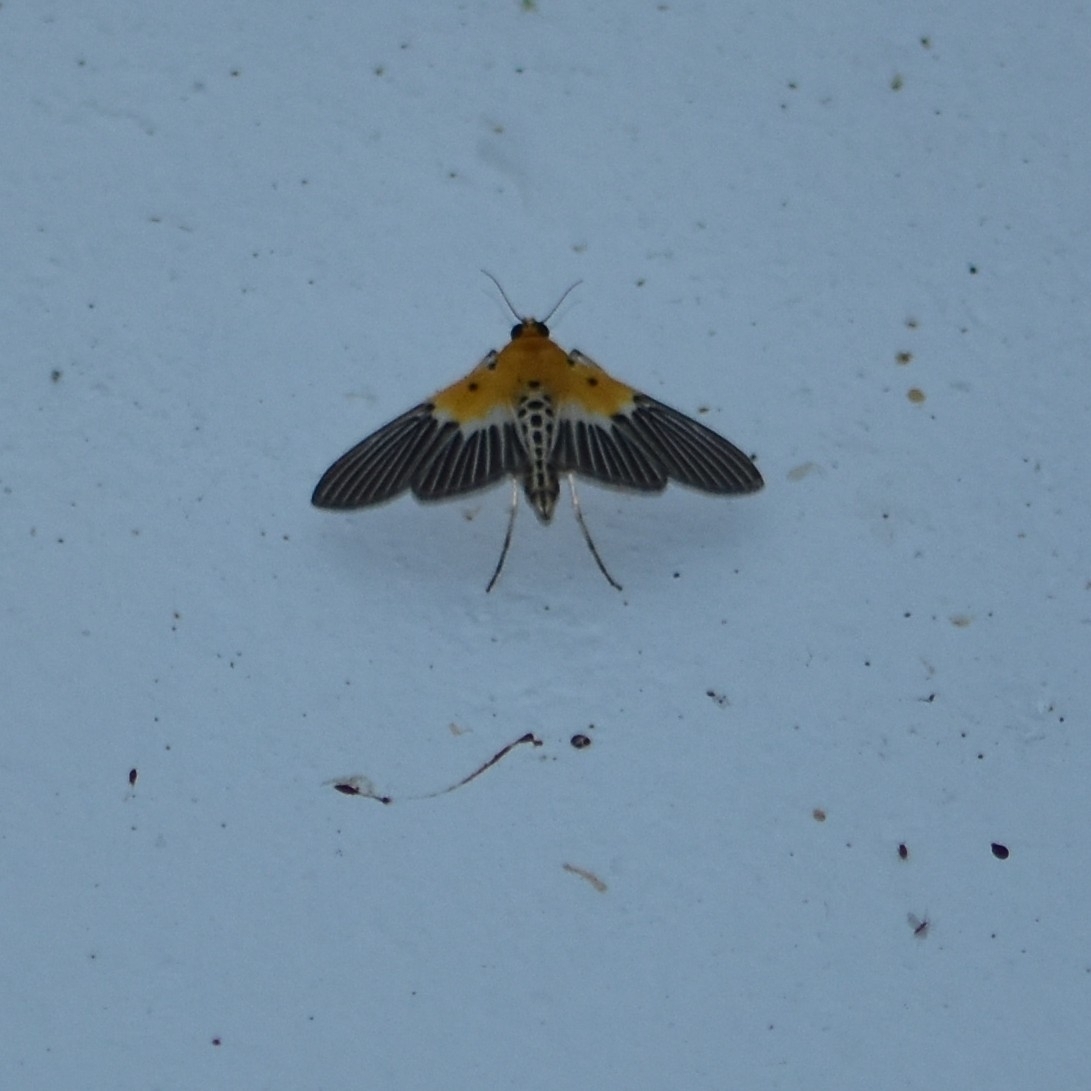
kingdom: Animalia
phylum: Arthropoda
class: Insecta
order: Lepidoptera
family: Crambidae
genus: Nevrina
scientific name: Nevrina procopia
